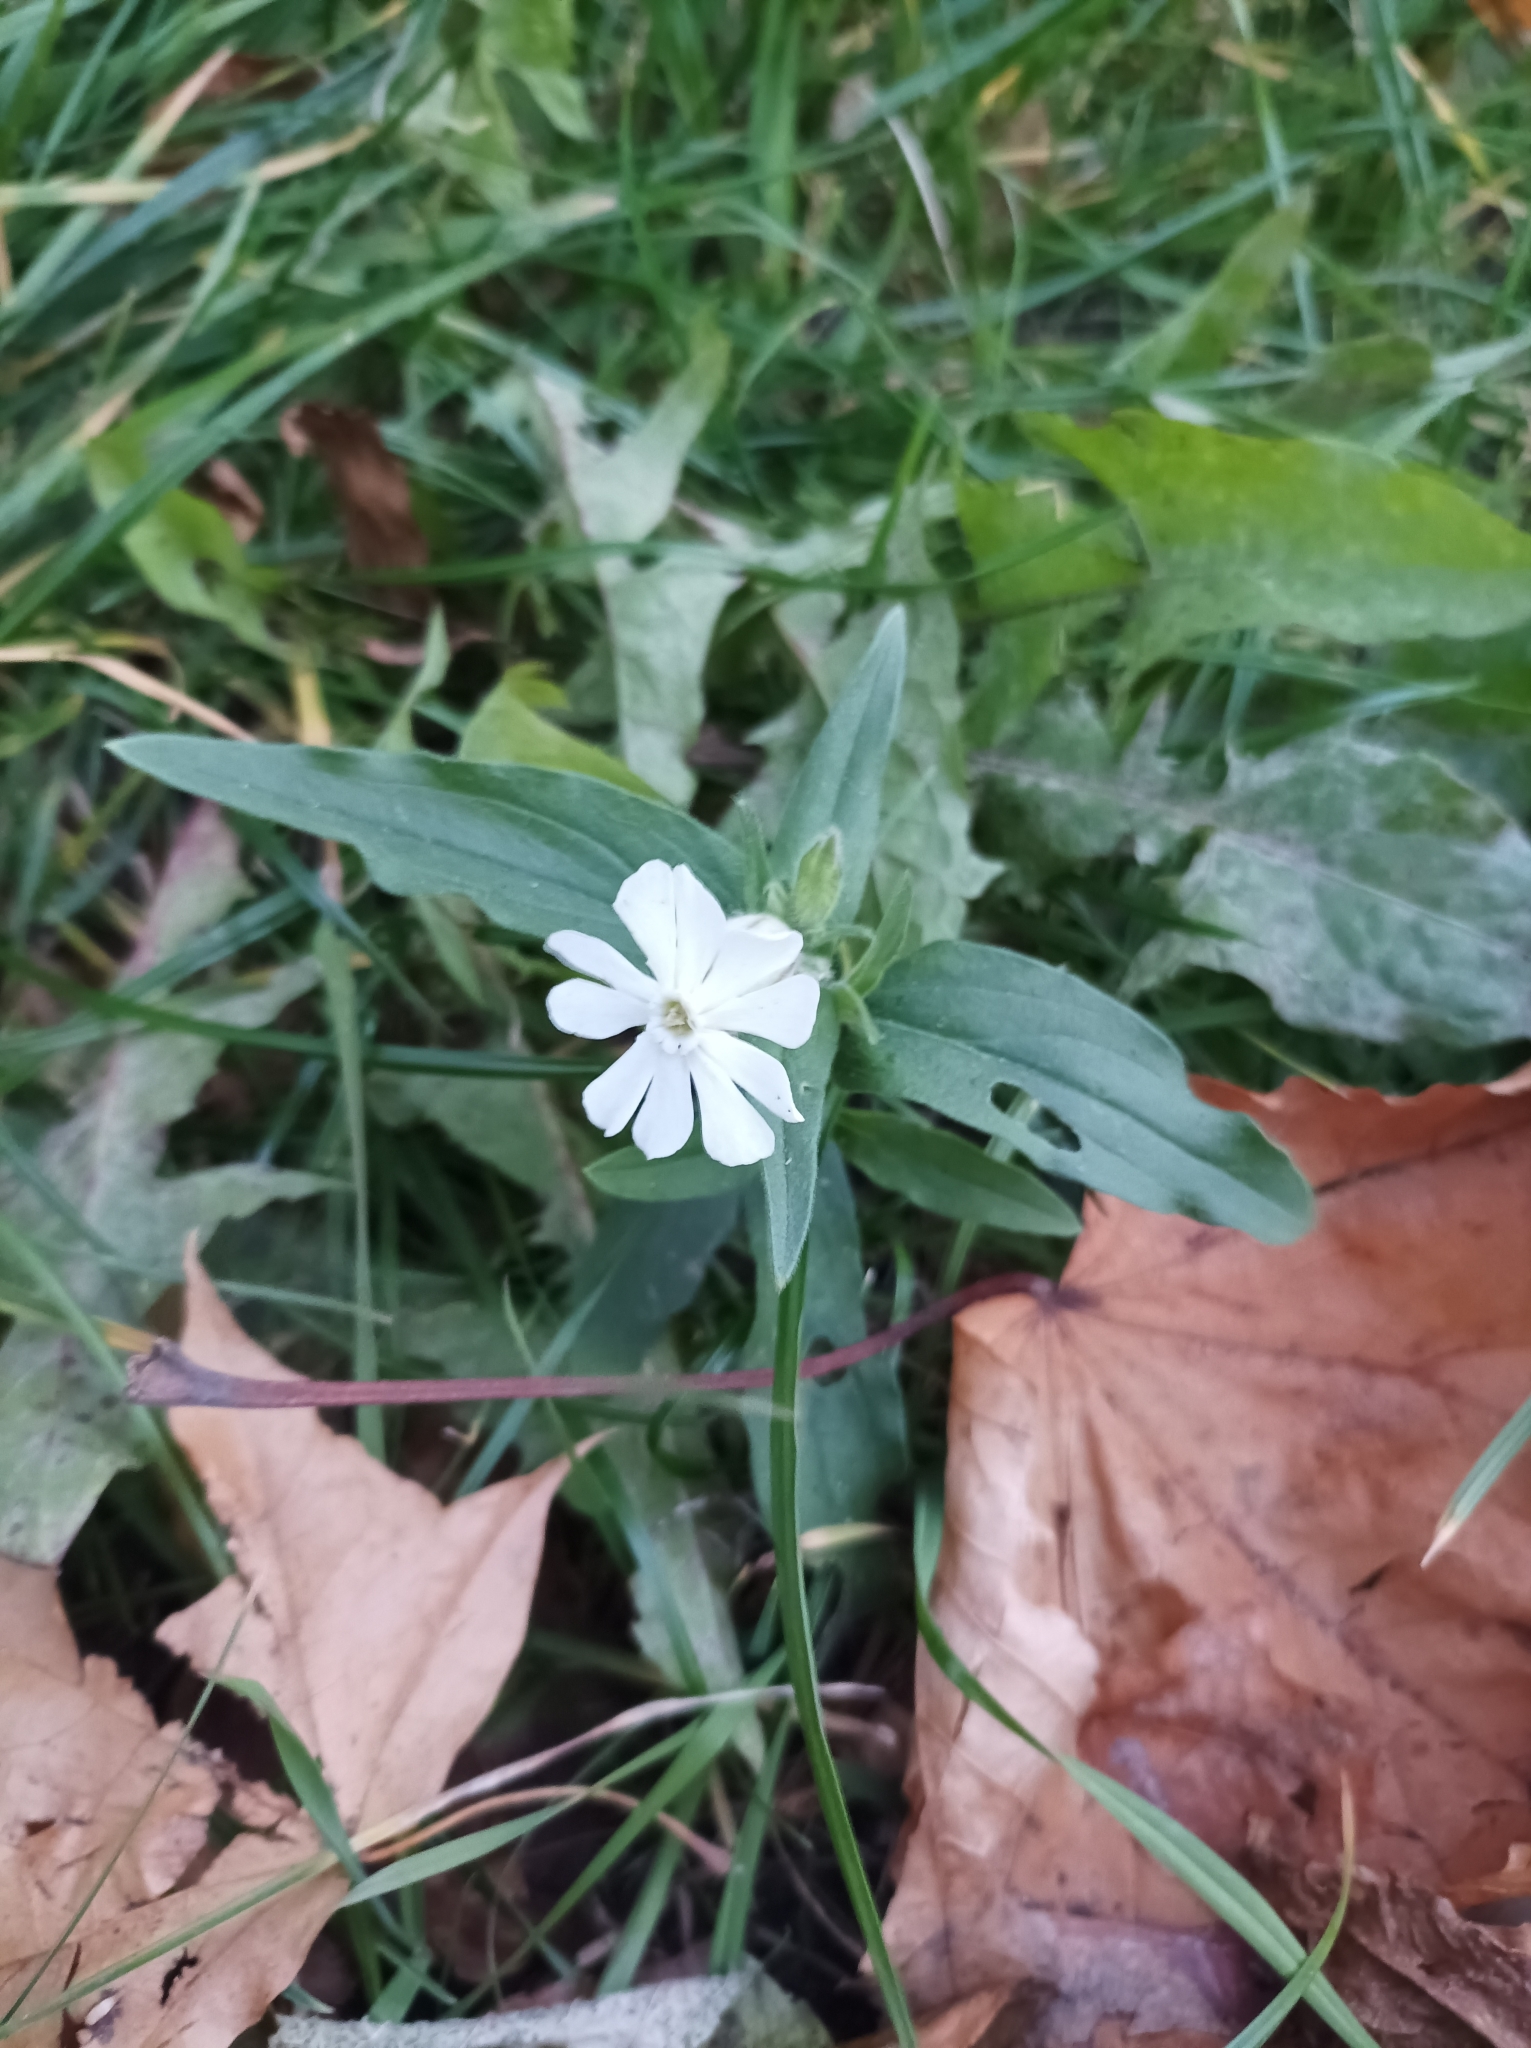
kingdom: Plantae
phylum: Tracheophyta
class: Magnoliopsida
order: Caryophyllales
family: Caryophyllaceae
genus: Silene
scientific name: Silene latifolia
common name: White campion
